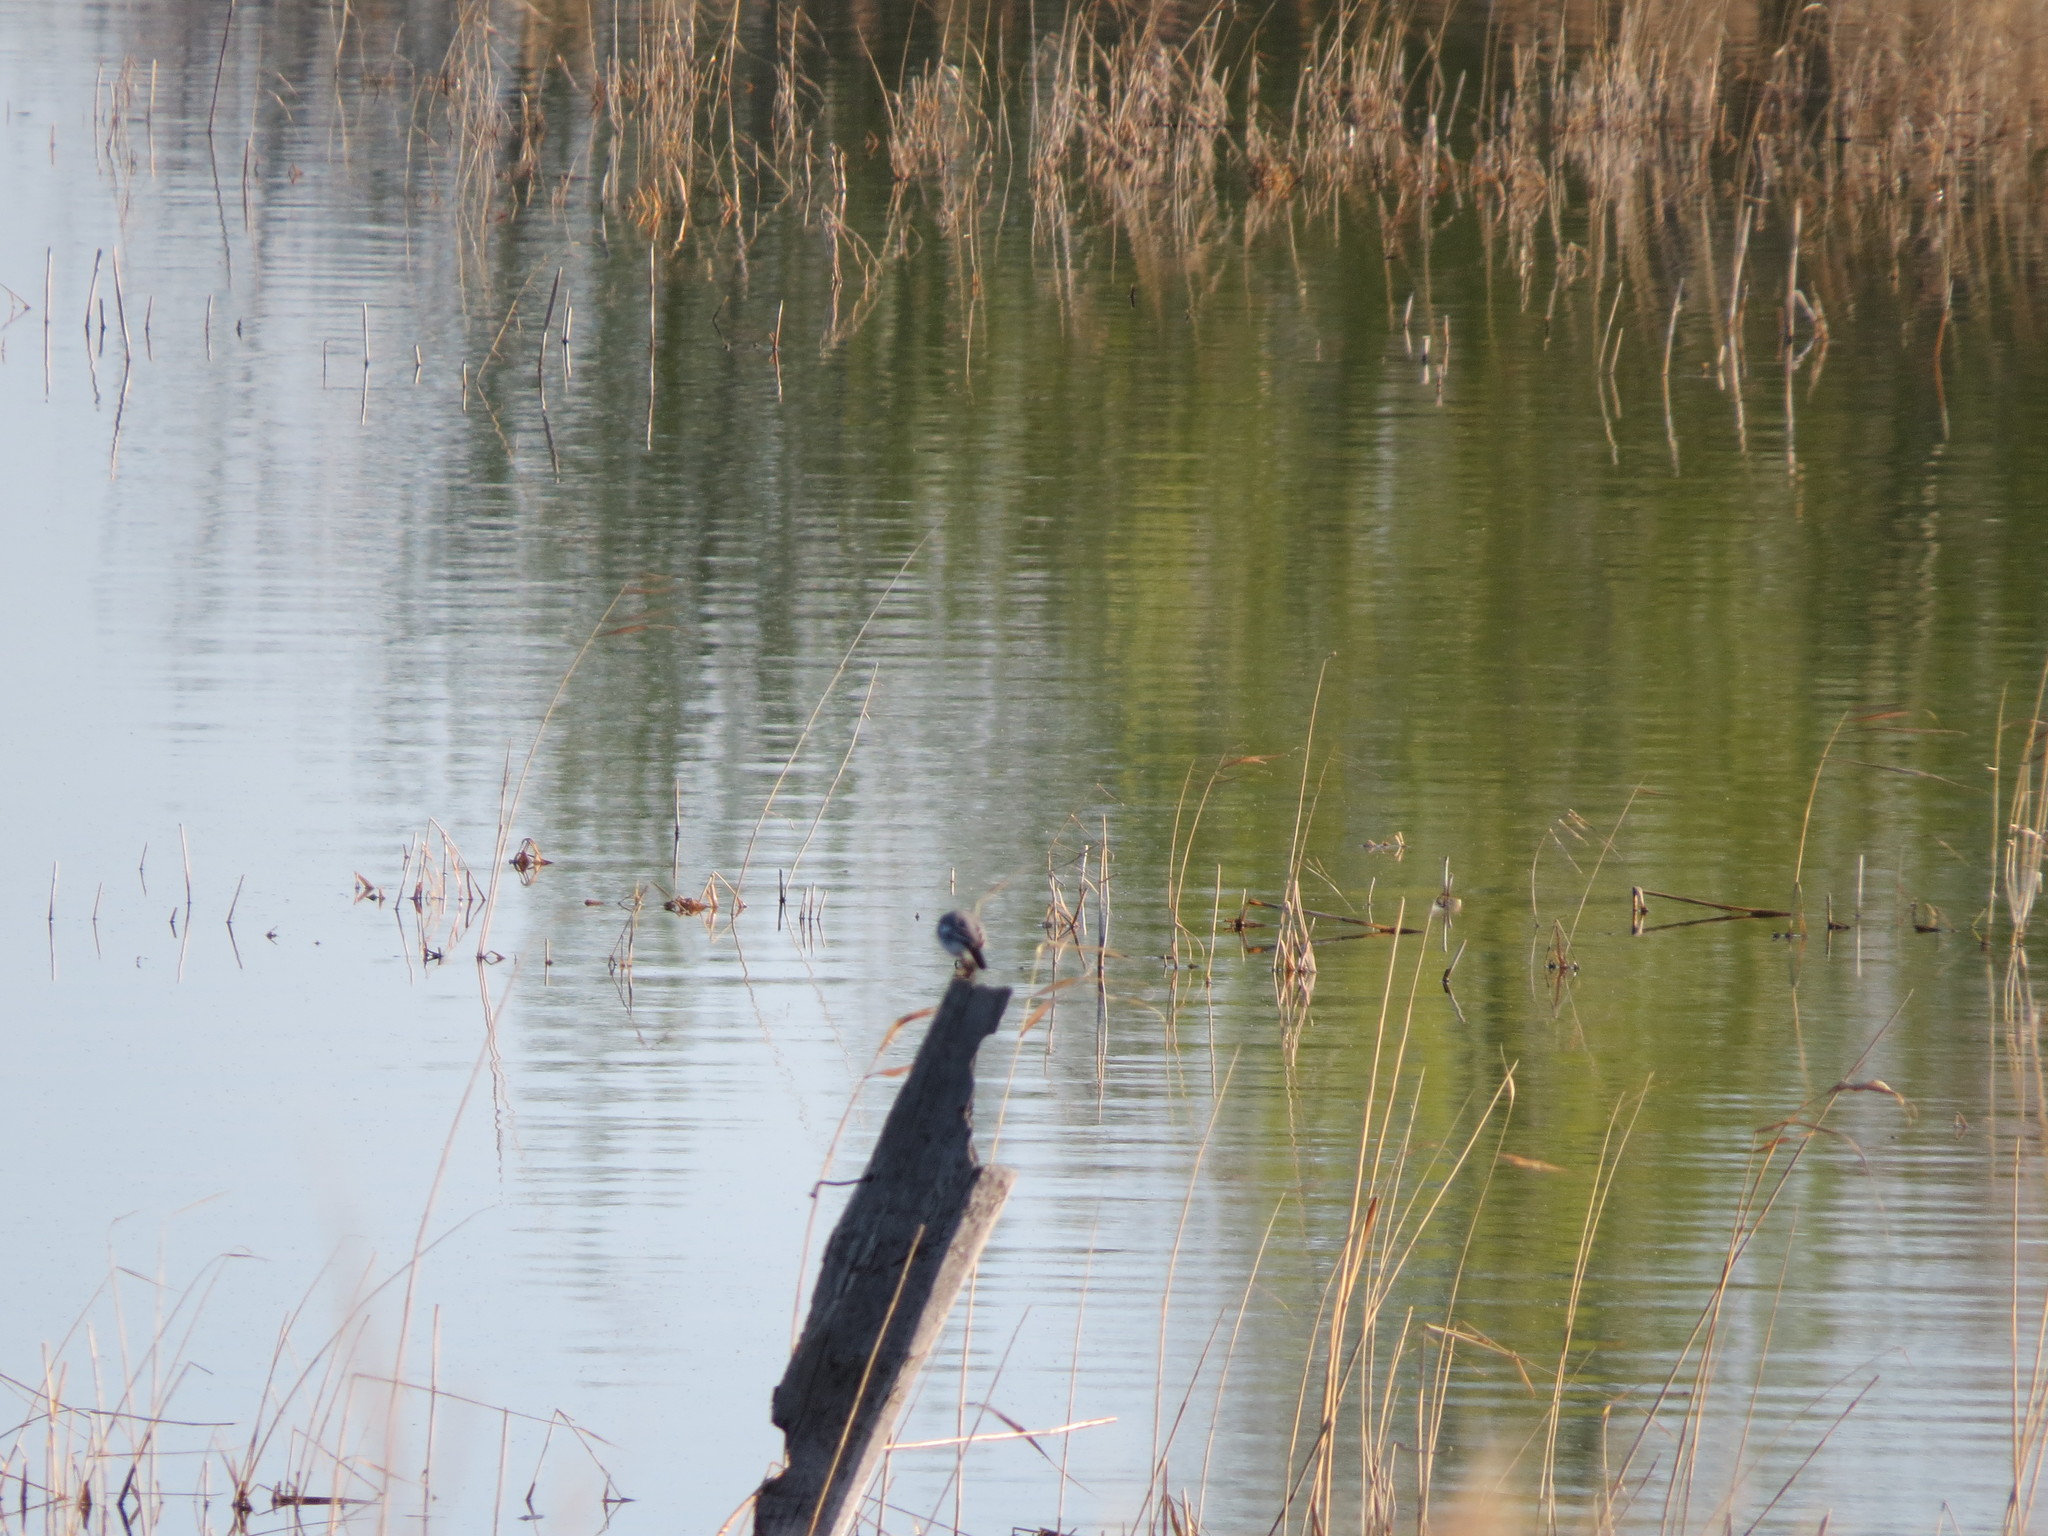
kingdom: Animalia
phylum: Chordata
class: Aves
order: Passeriformes
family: Motacillidae
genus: Motacilla
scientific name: Motacilla alba
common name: White wagtail
